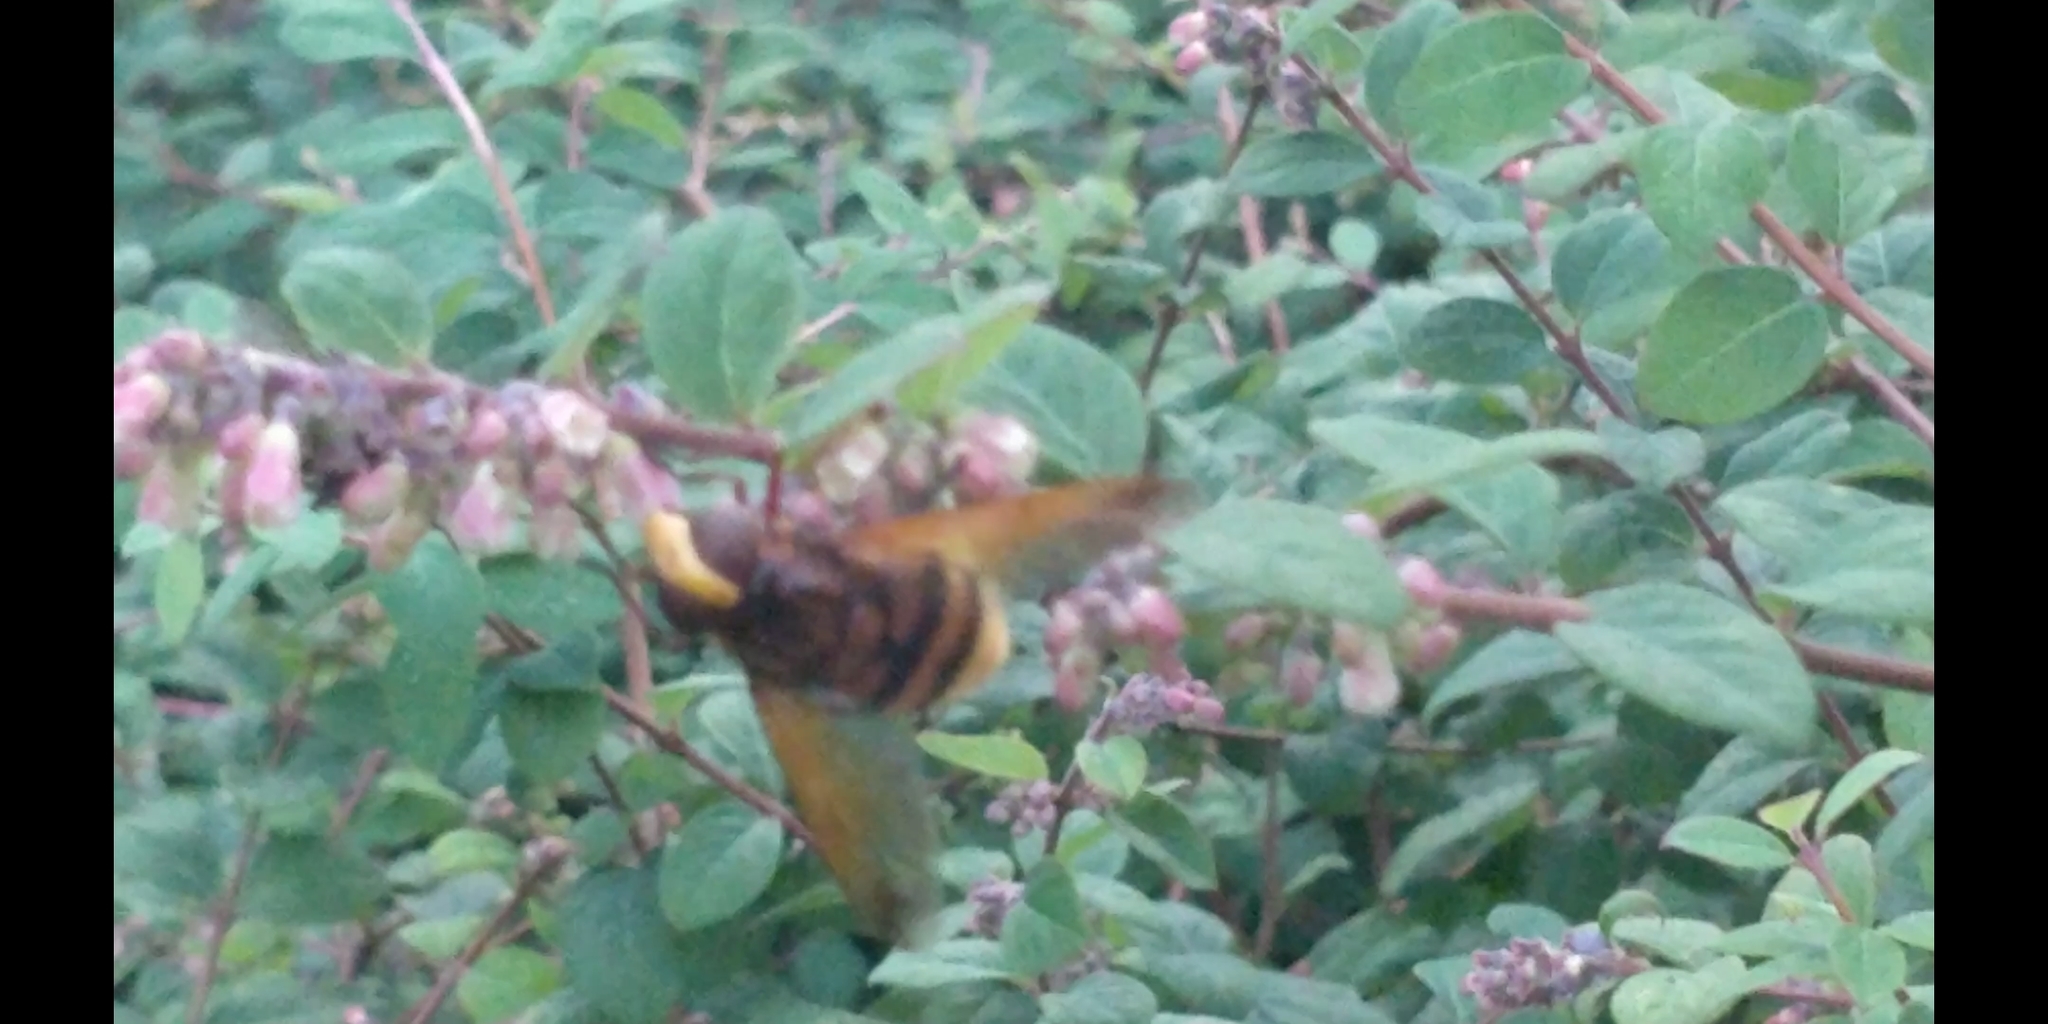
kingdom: Animalia
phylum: Arthropoda
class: Insecta
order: Diptera
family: Syrphidae
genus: Volucella
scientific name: Volucella zonaria
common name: Hornet hoverfly
